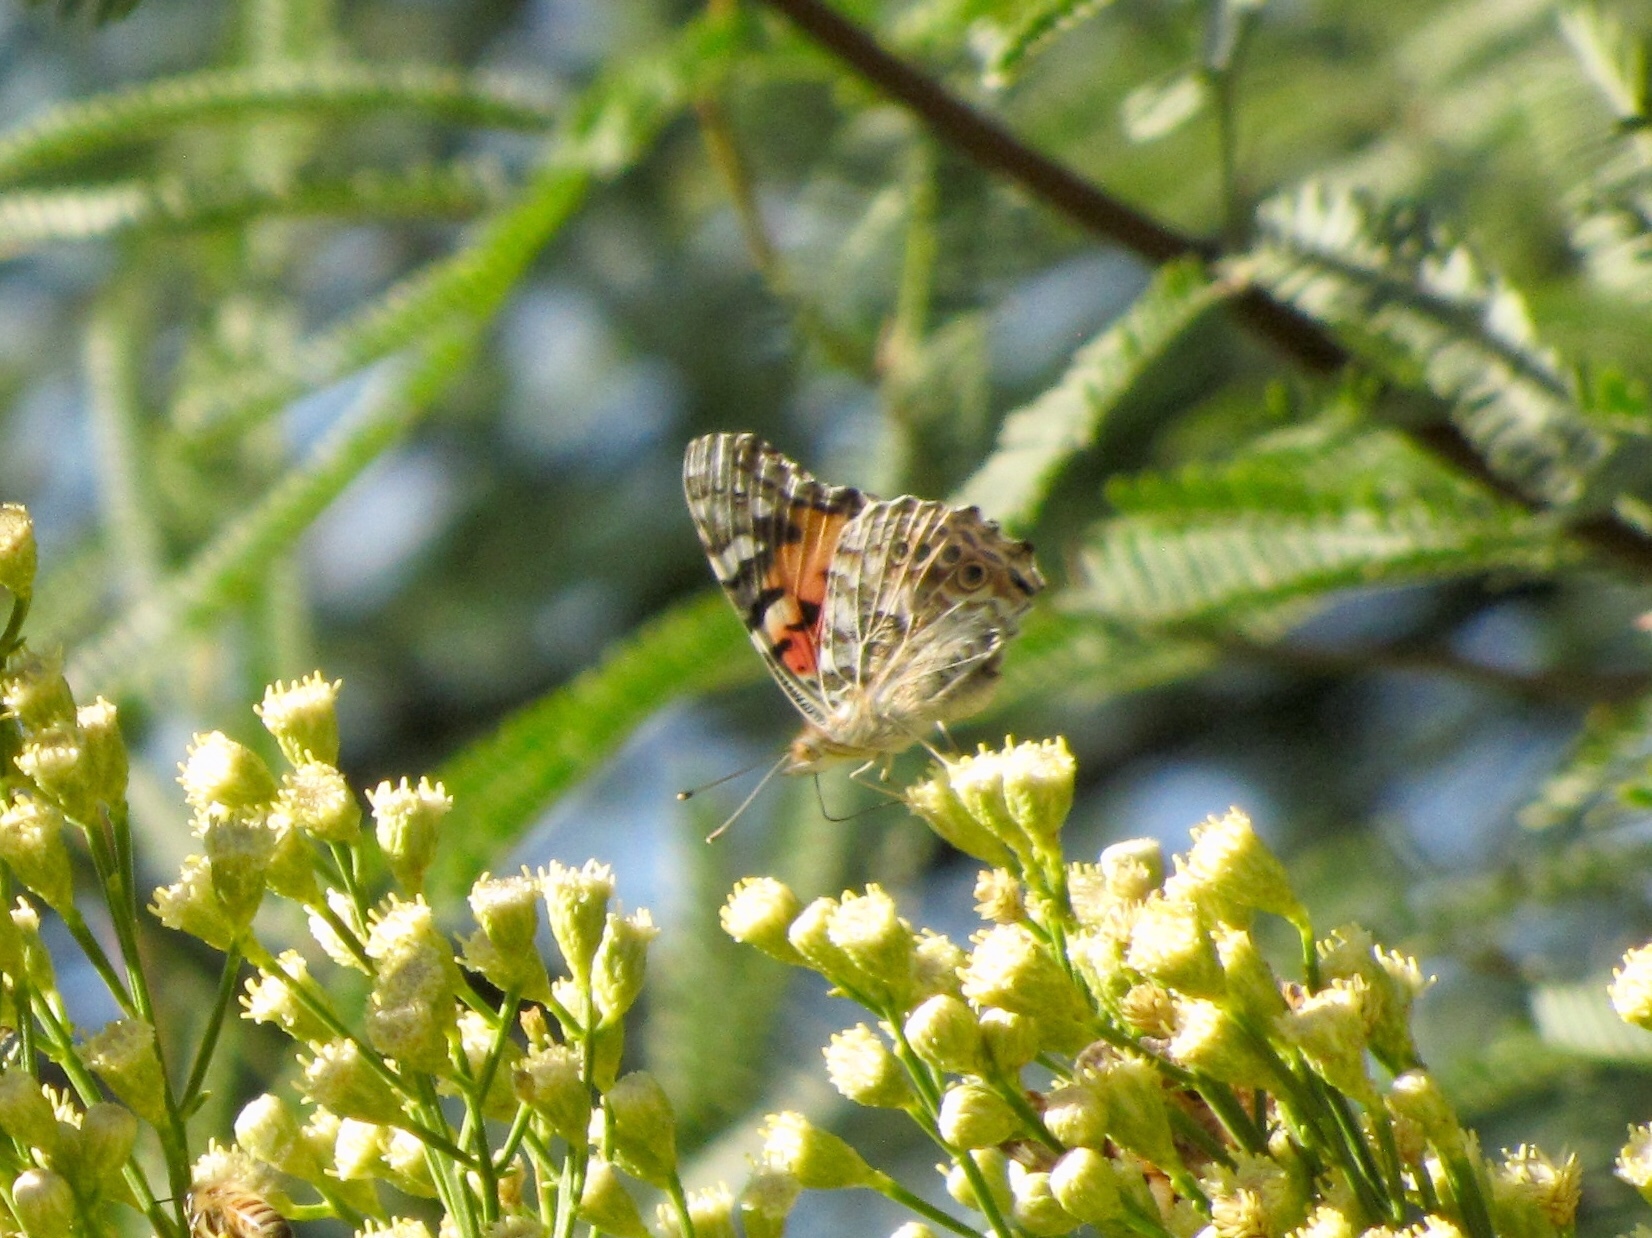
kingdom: Animalia
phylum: Arthropoda
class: Insecta
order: Lepidoptera
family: Nymphalidae
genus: Vanessa
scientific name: Vanessa cardui
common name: Painted lady
